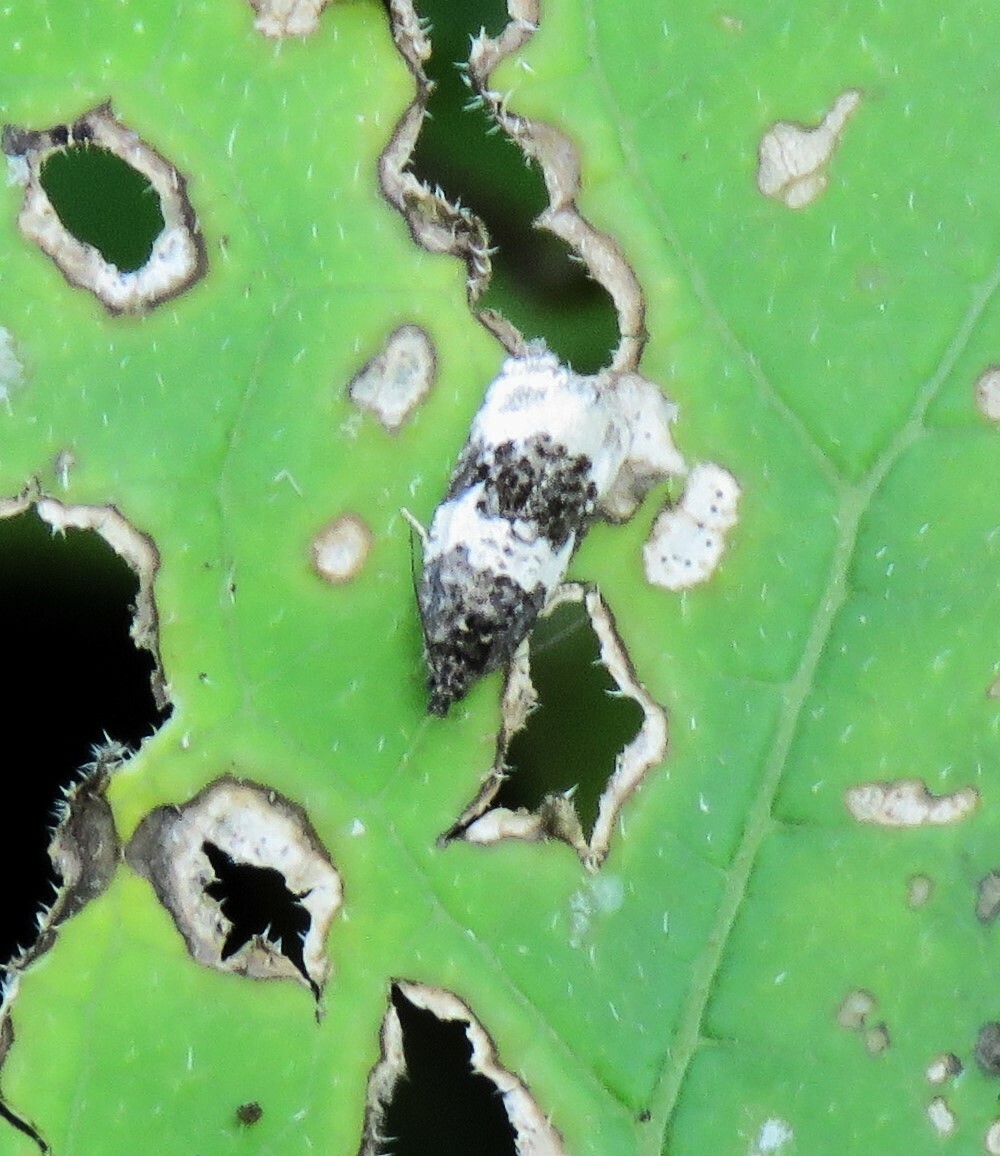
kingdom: Animalia
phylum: Arthropoda
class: Insecta
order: Lepidoptera
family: Tortricidae
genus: Olethreutes
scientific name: Olethreutes bipartitana
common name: Divided olethreutes moth
